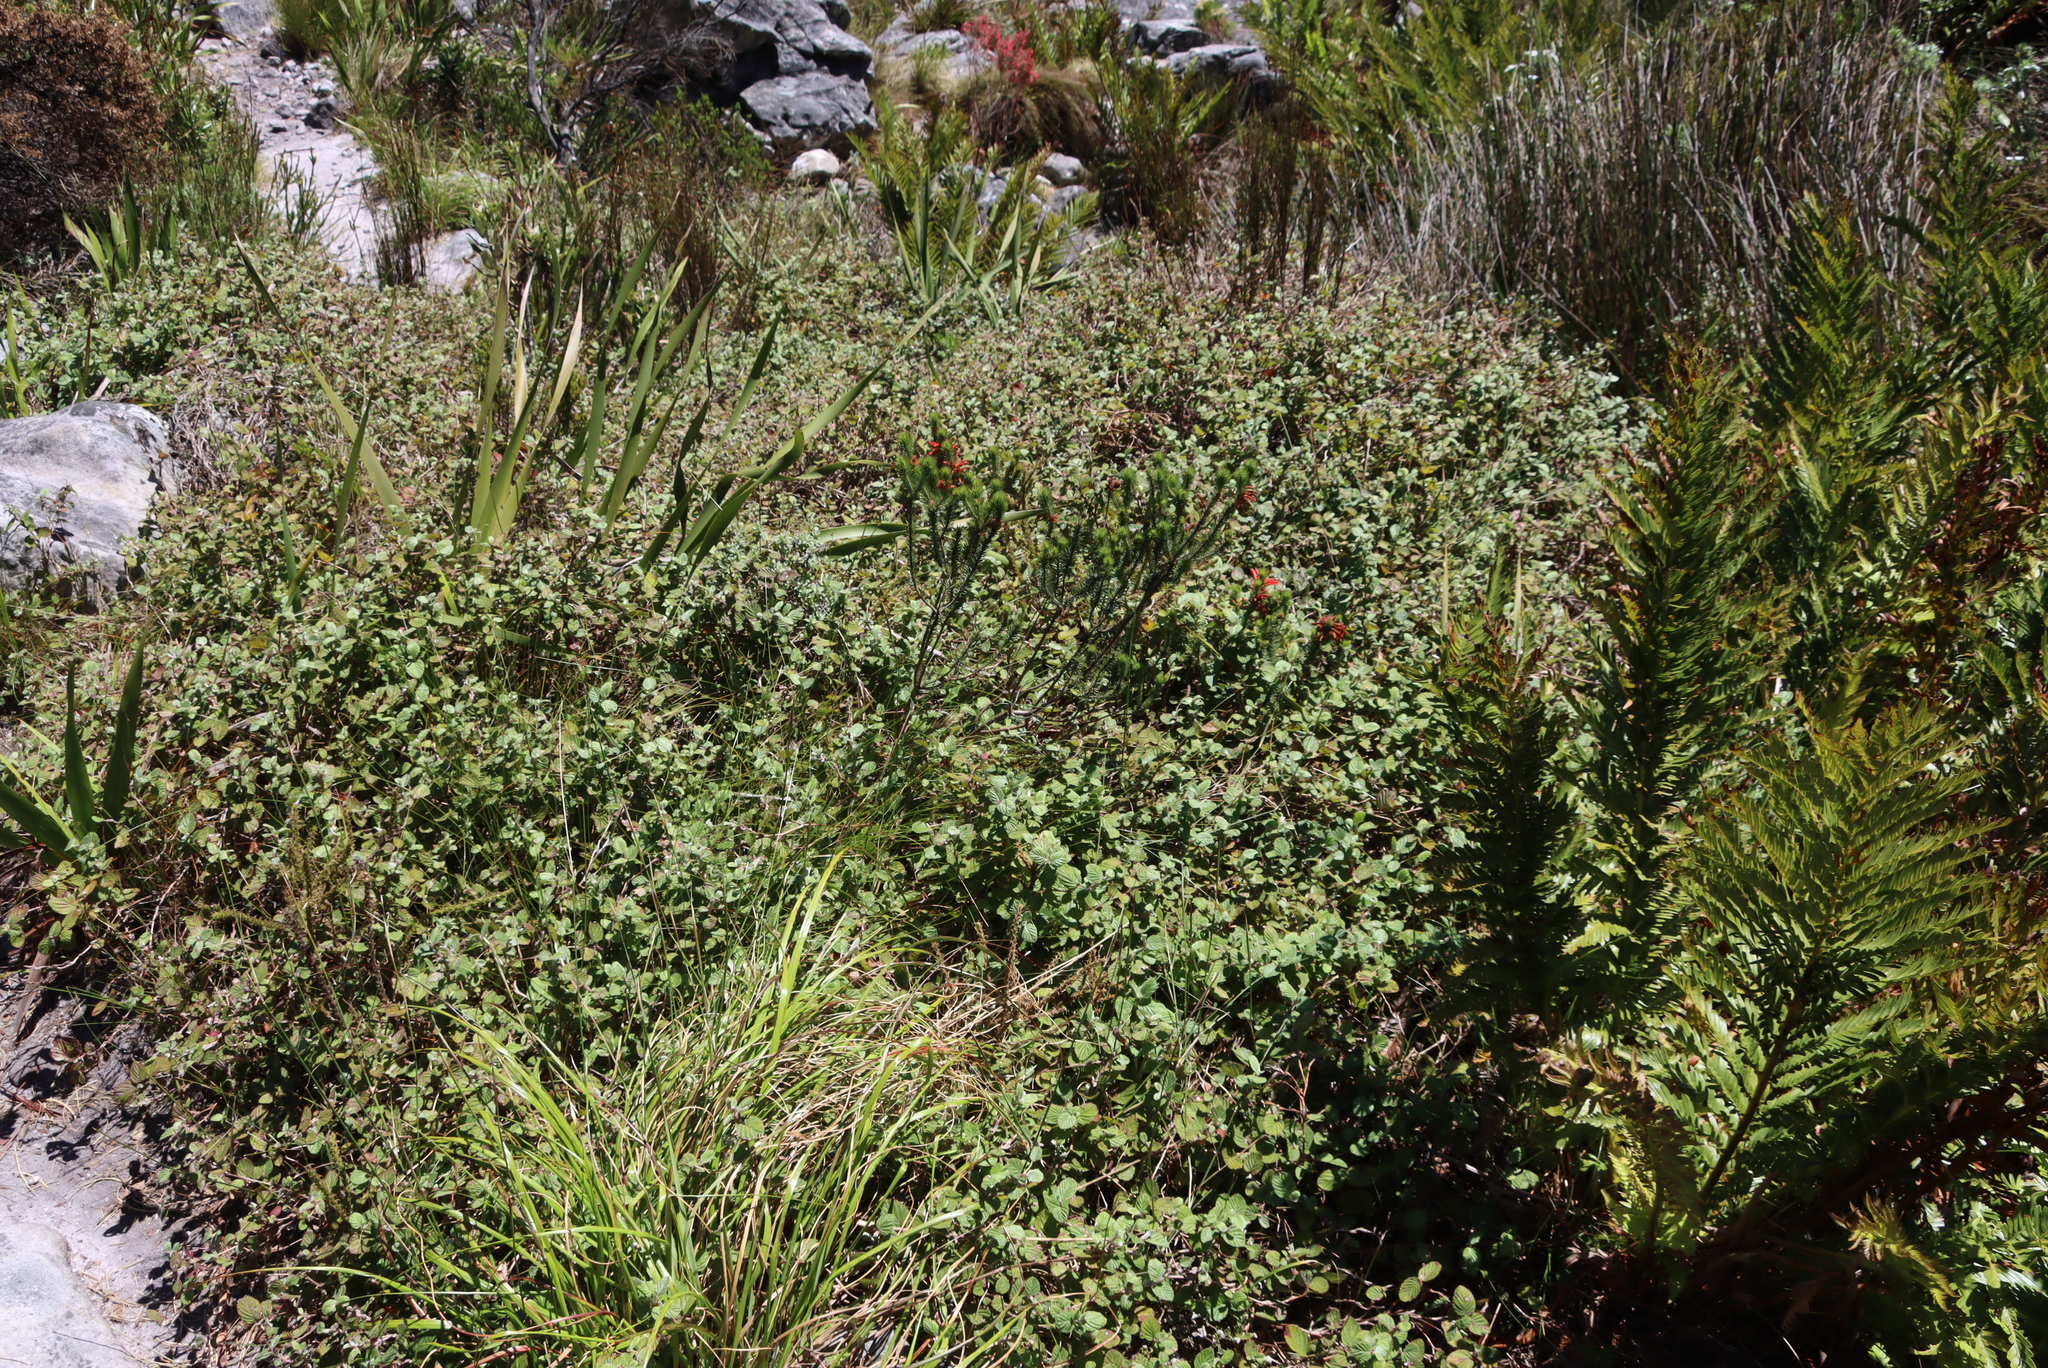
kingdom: Plantae
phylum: Tracheophyta
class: Magnoliopsida
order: Rosales
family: Rosaceae
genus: Cliffortia
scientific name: Cliffortia odorata
